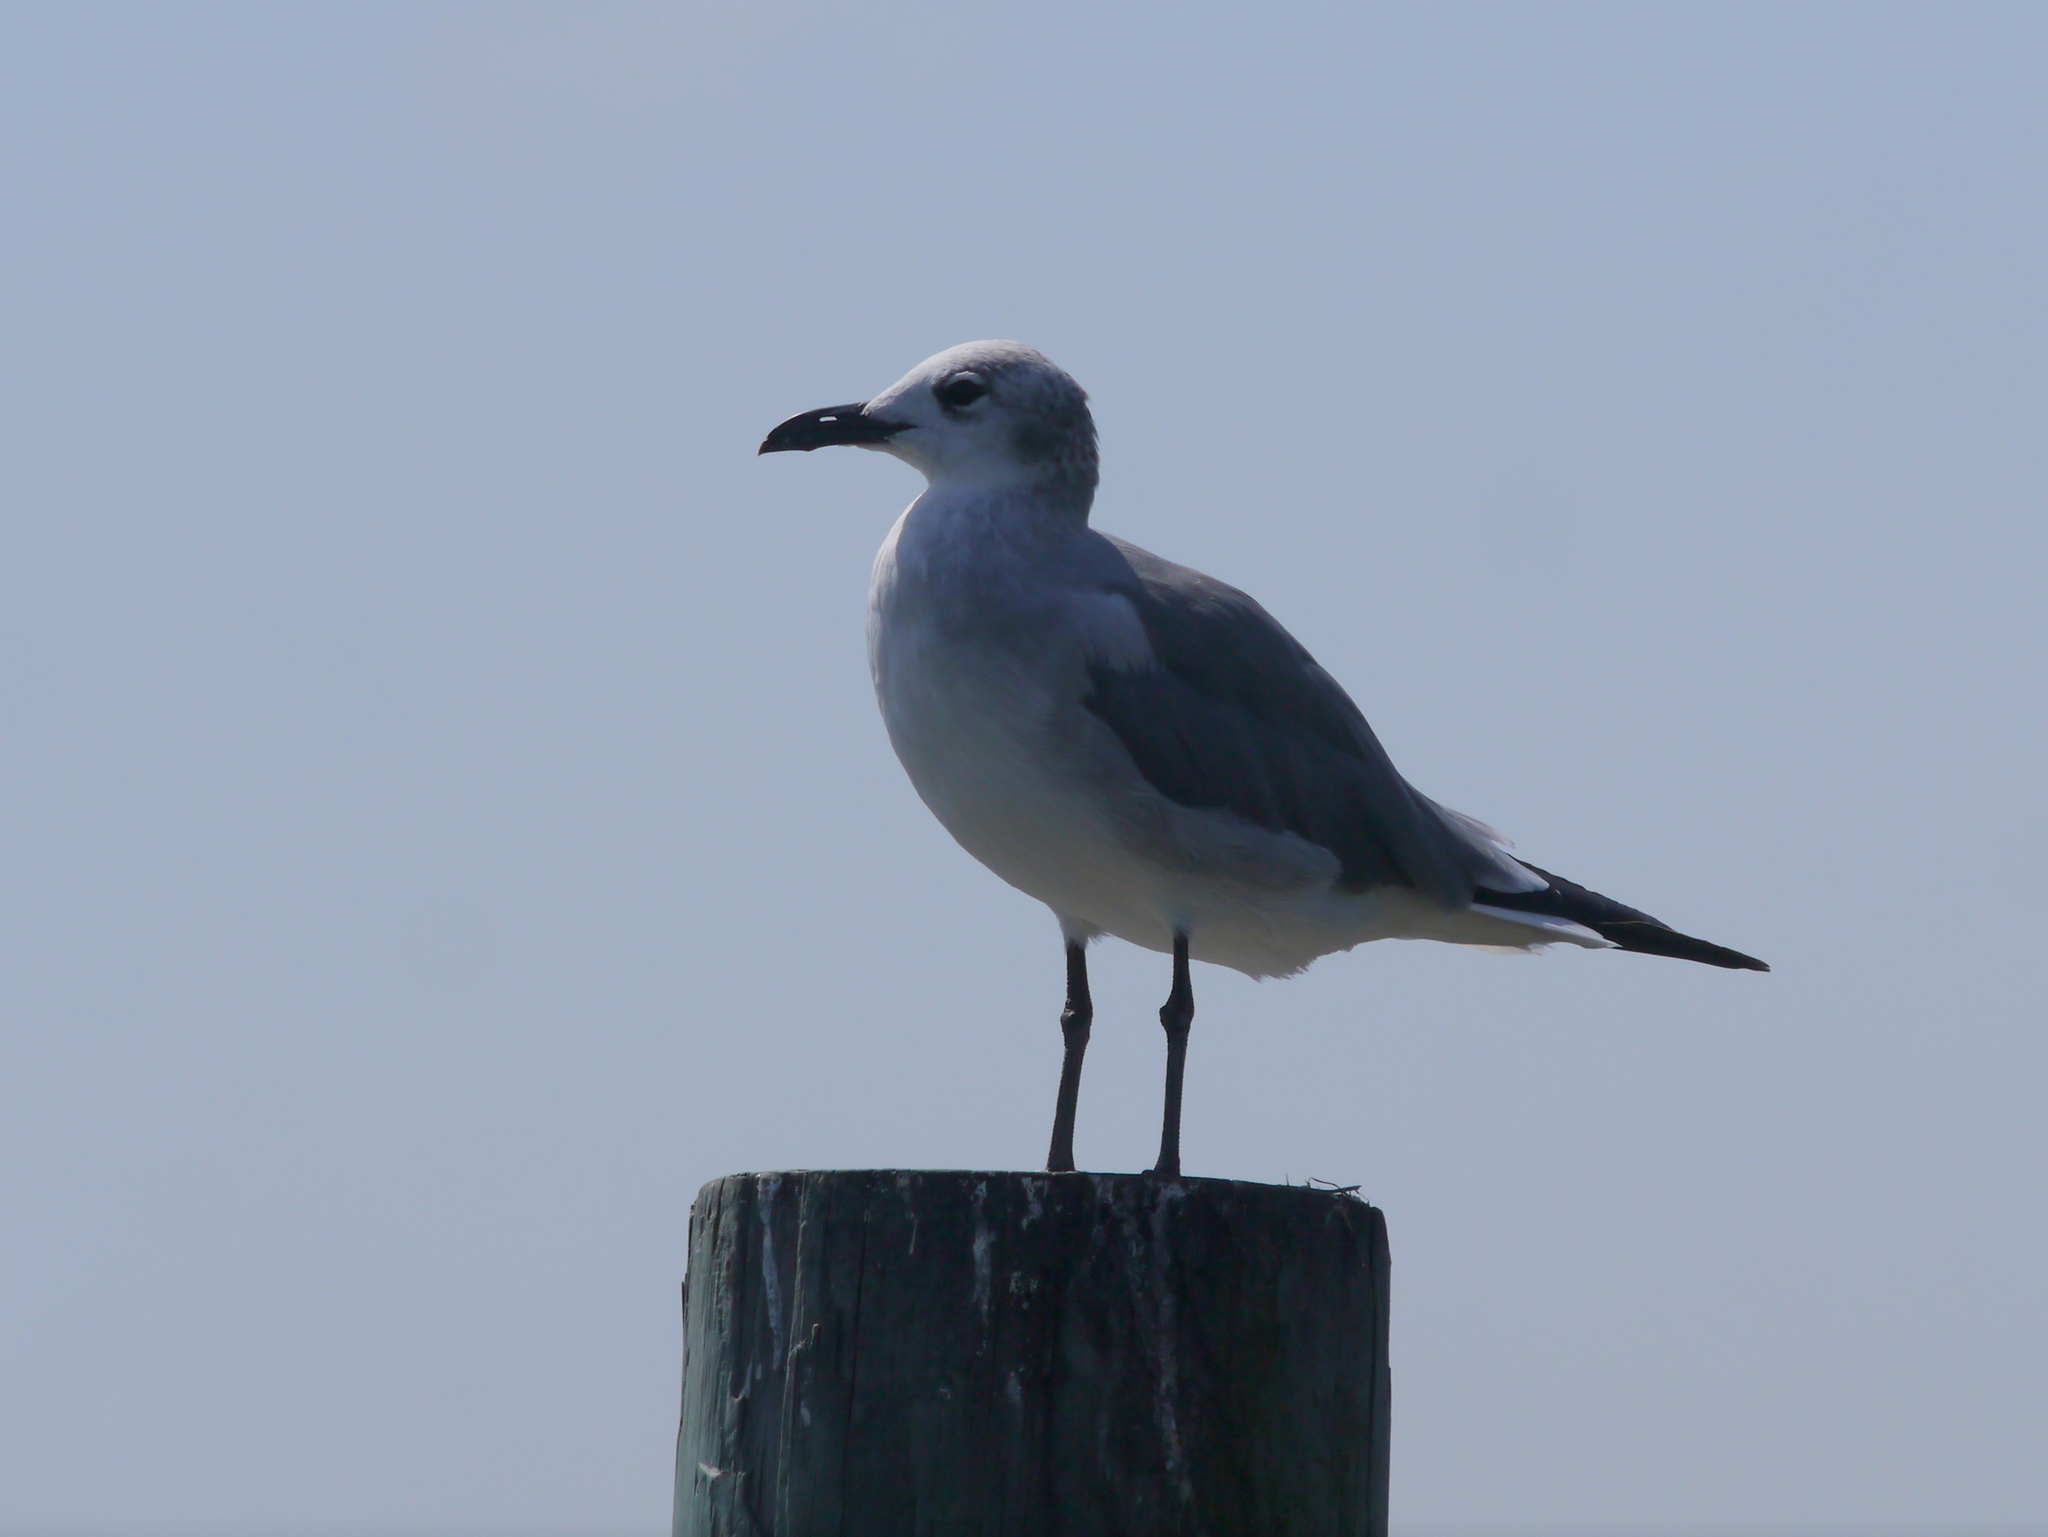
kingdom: Animalia
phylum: Chordata
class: Aves
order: Charadriiformes
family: Laridae
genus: Leucophaeus
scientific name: Leucophaeus atricilla
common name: Laughing gull
